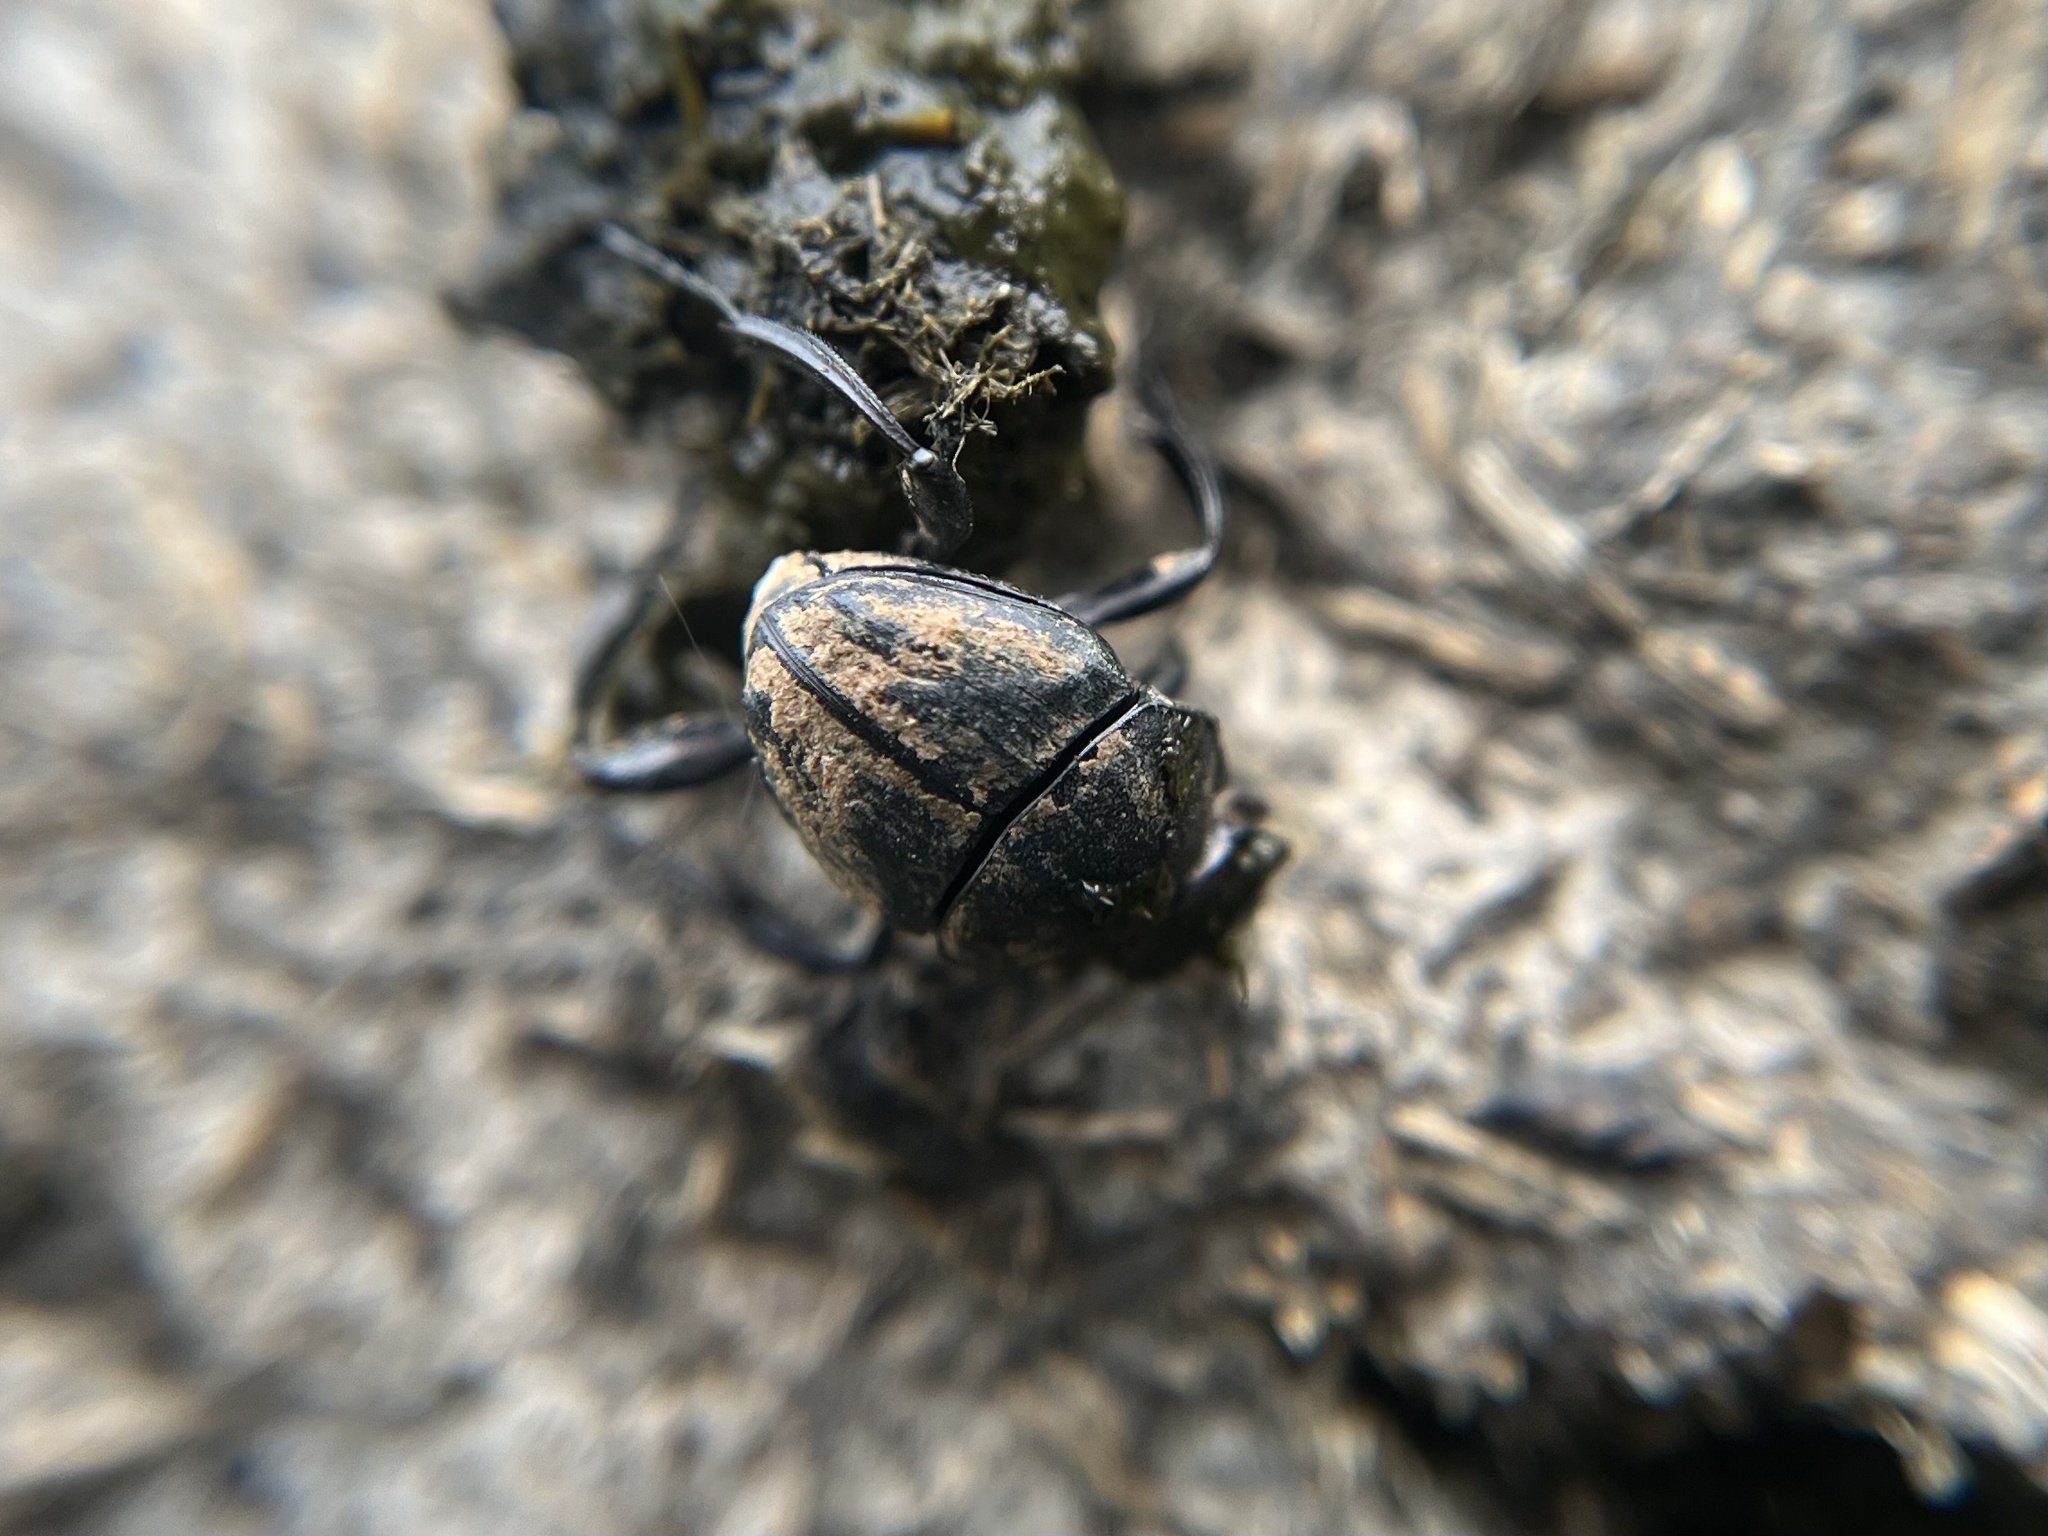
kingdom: Animalia
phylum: Arthropoda
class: Insecta
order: Coleoptera
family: Scarabaeidae
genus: Sisyphus
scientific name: Sisyphus schaefferi
